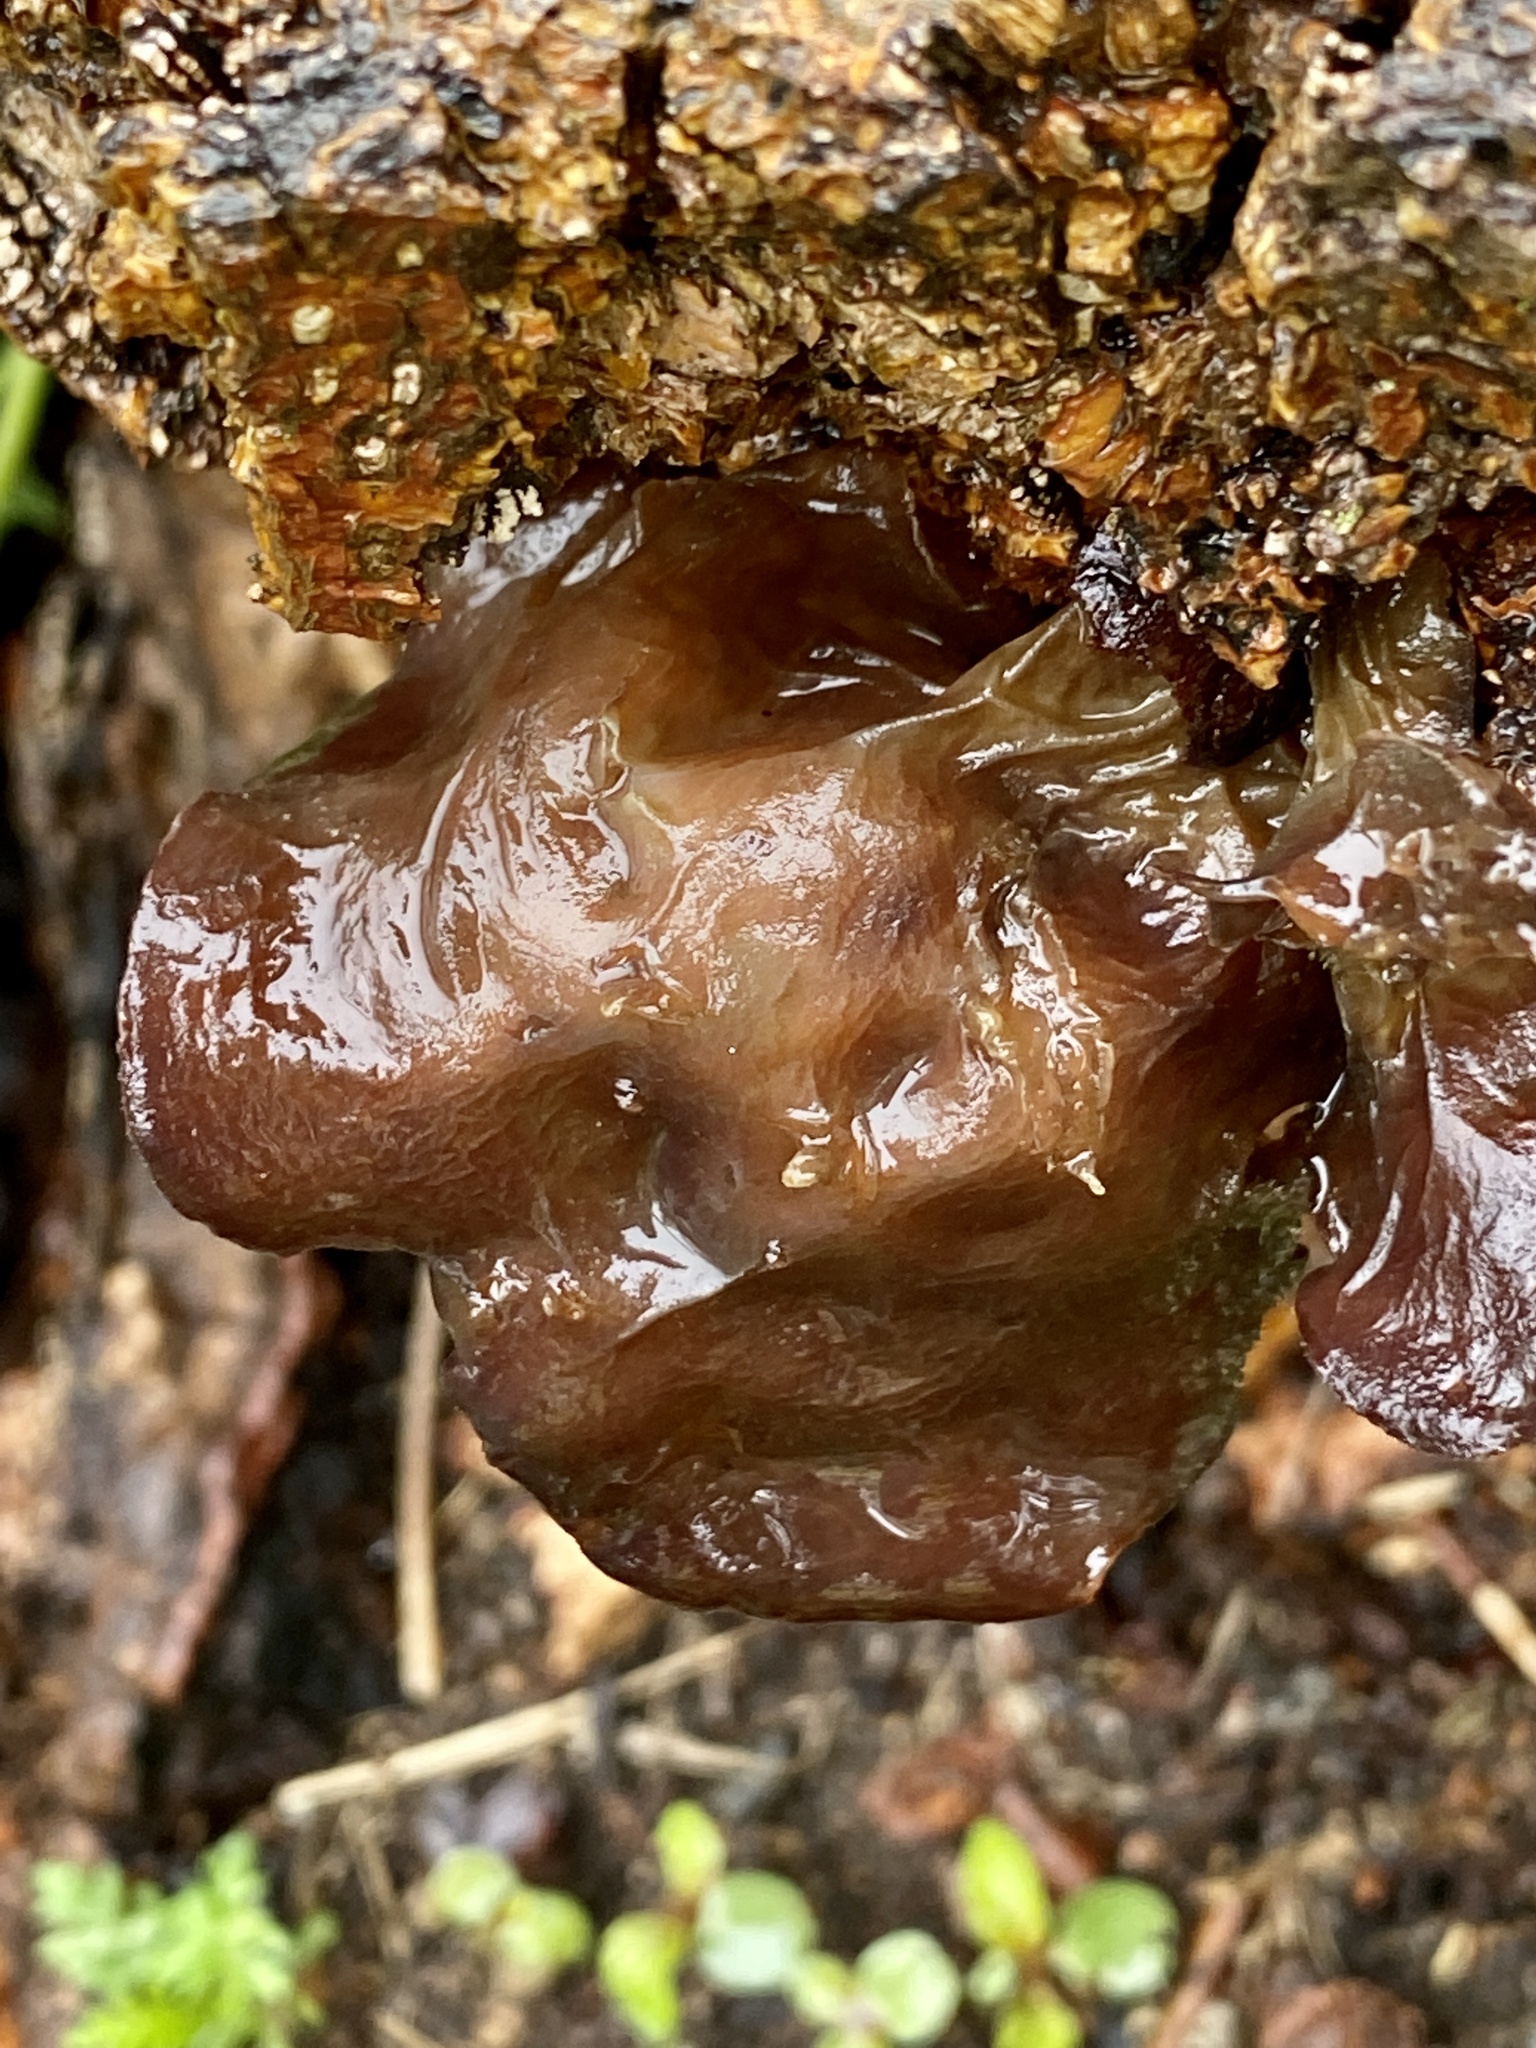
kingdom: Fungi
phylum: Basidiomycota
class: Agaricomycetes
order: Auriculariales
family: Auriculariaceae
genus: Exidia
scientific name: Exidia recisa
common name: Amber jelly
